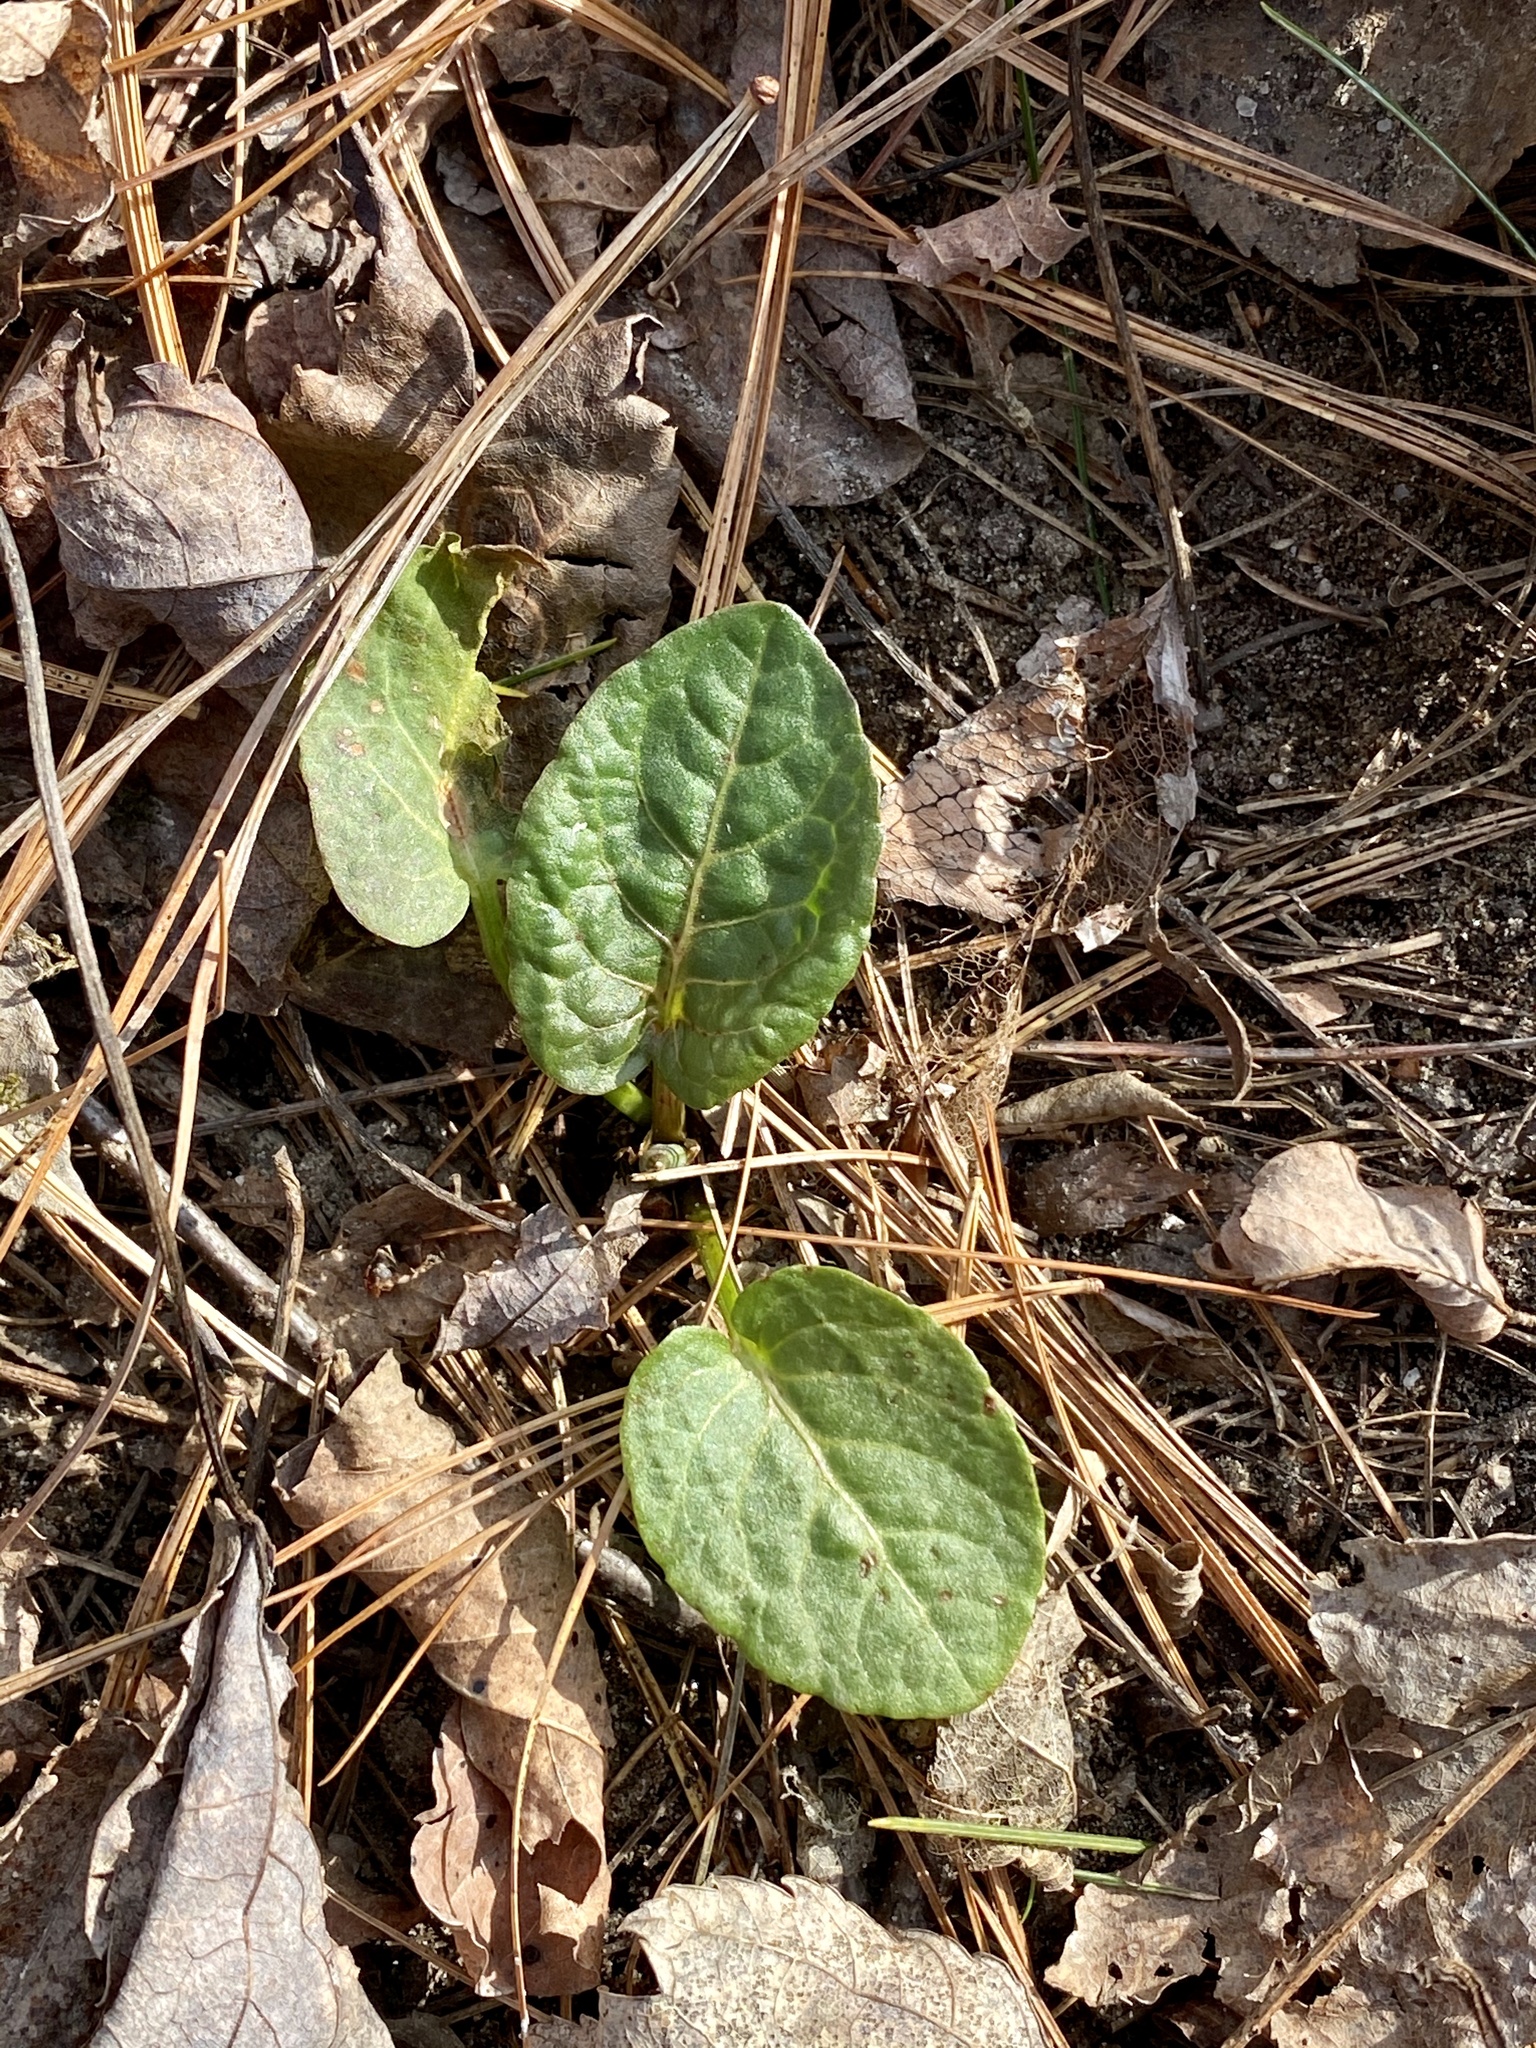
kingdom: Plantae
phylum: Tracheophyta
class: Magnoliopsida
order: Caryophyllales
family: Polygonaceae
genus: Rumex
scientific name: Rumex obtusifolius
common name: Bitter dock
